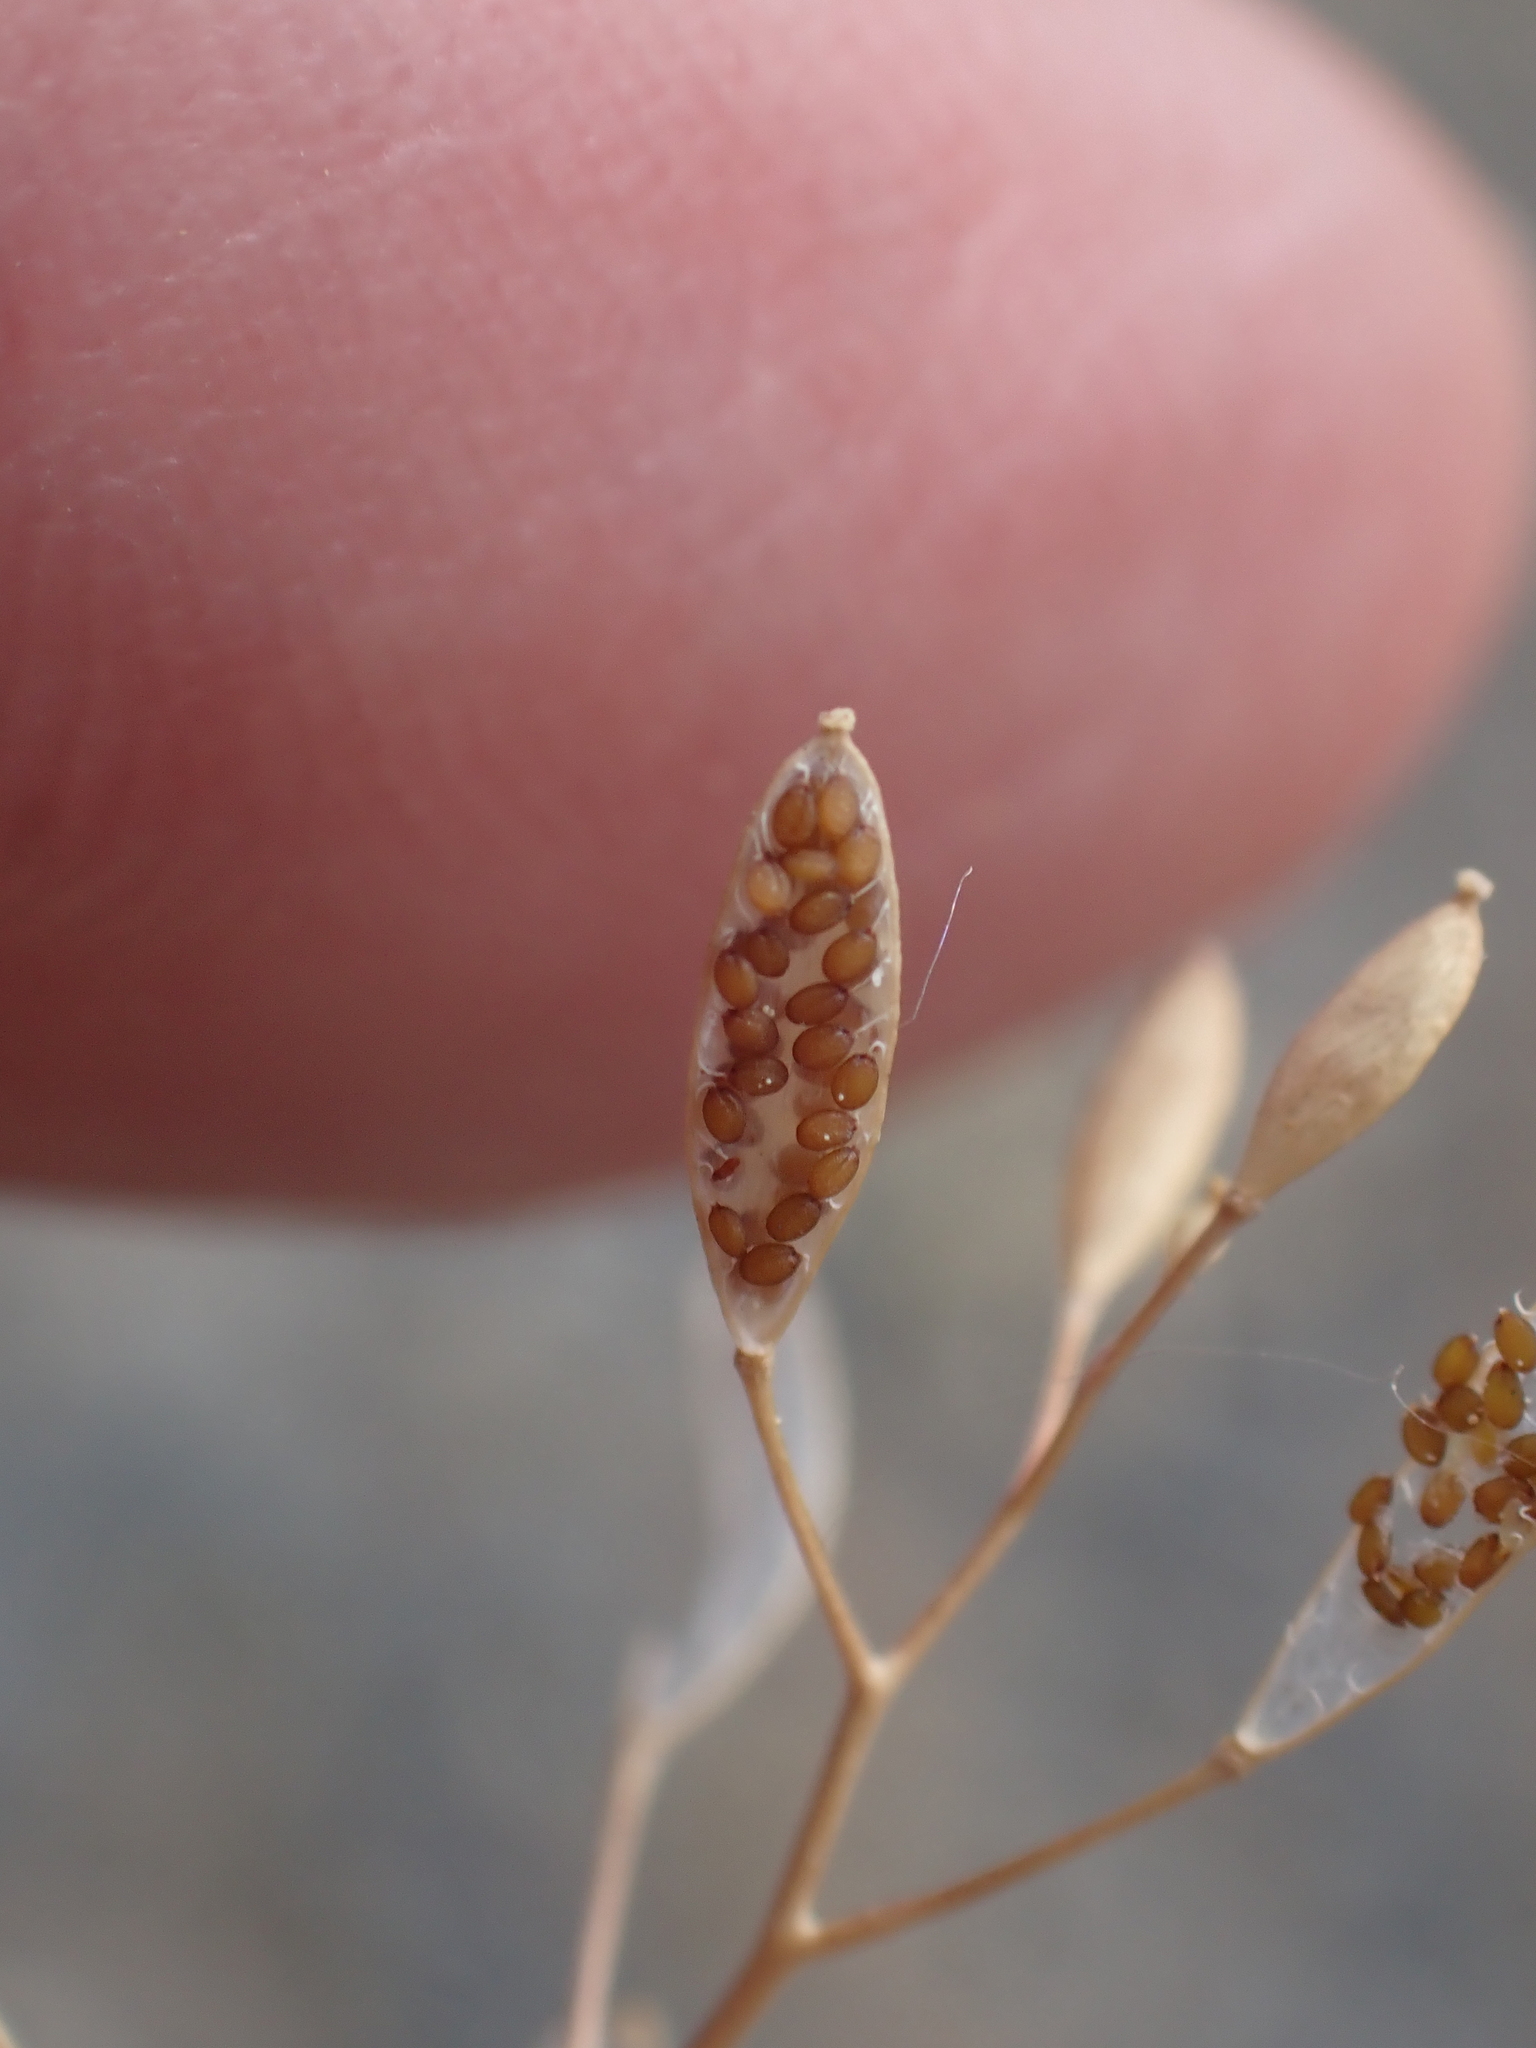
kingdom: Plantae
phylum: Tracheophyta
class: Magnoliopsida
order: Brassicales
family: Brassicaceae
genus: Draba
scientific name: Draba verna
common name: Spring draba
